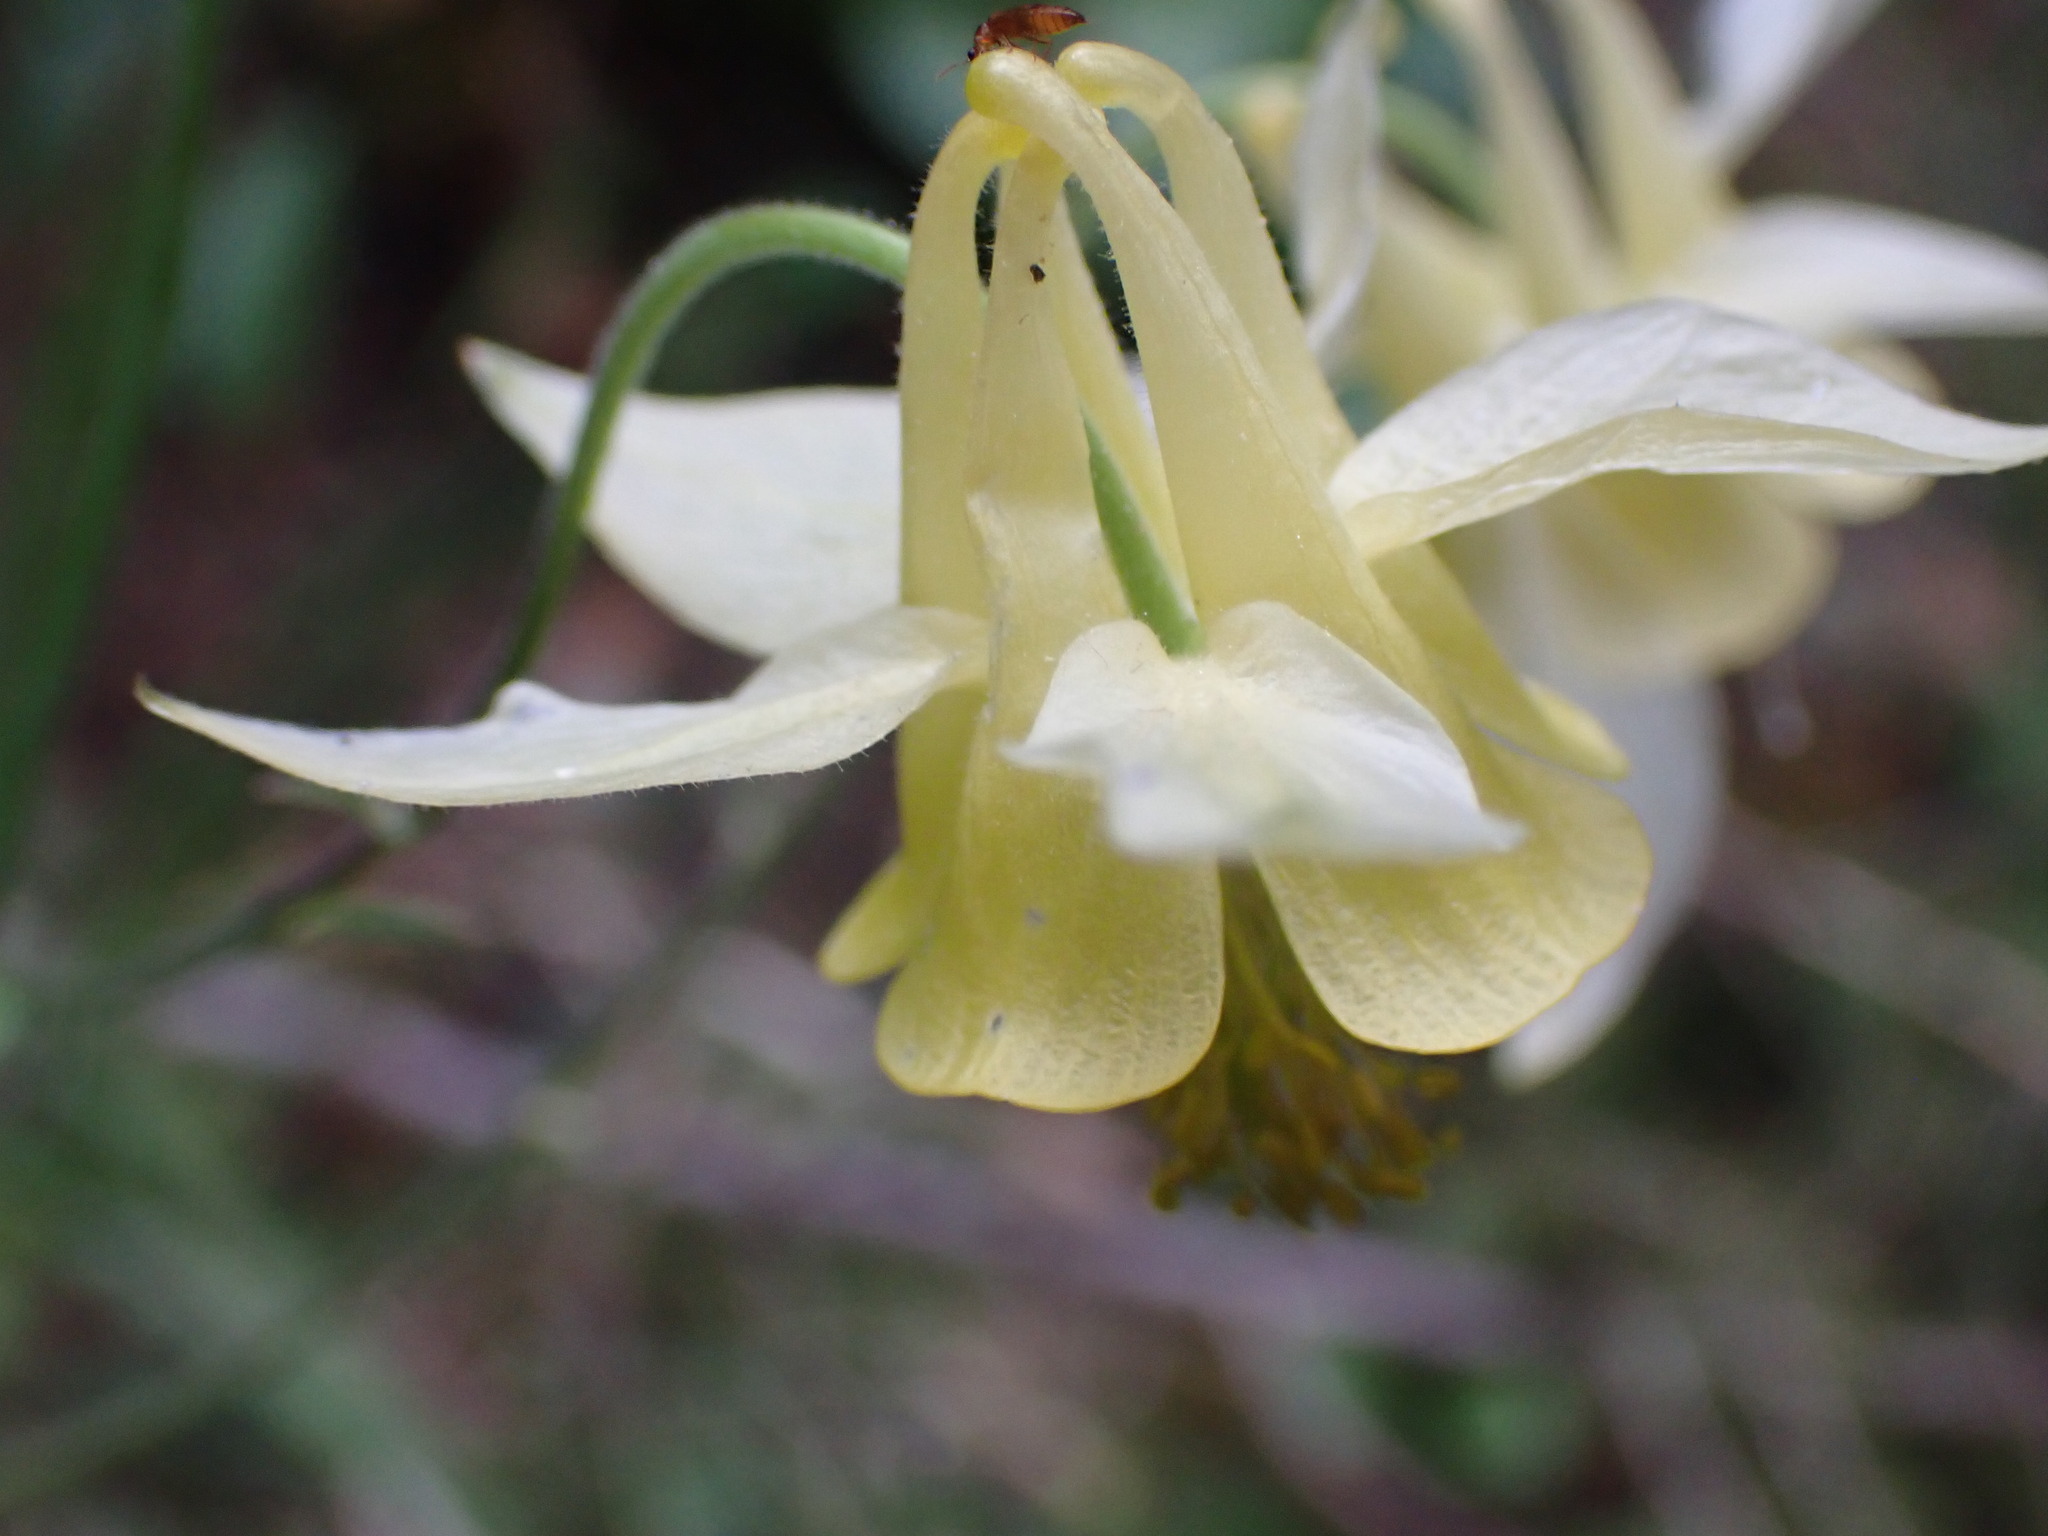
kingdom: Plantae
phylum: Tracheophyta
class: Magnoliopsida
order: Ranunculales
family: Ranunculaceae
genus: Aquilegia
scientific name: Aquilegia flavescens
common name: Yellow columbine
